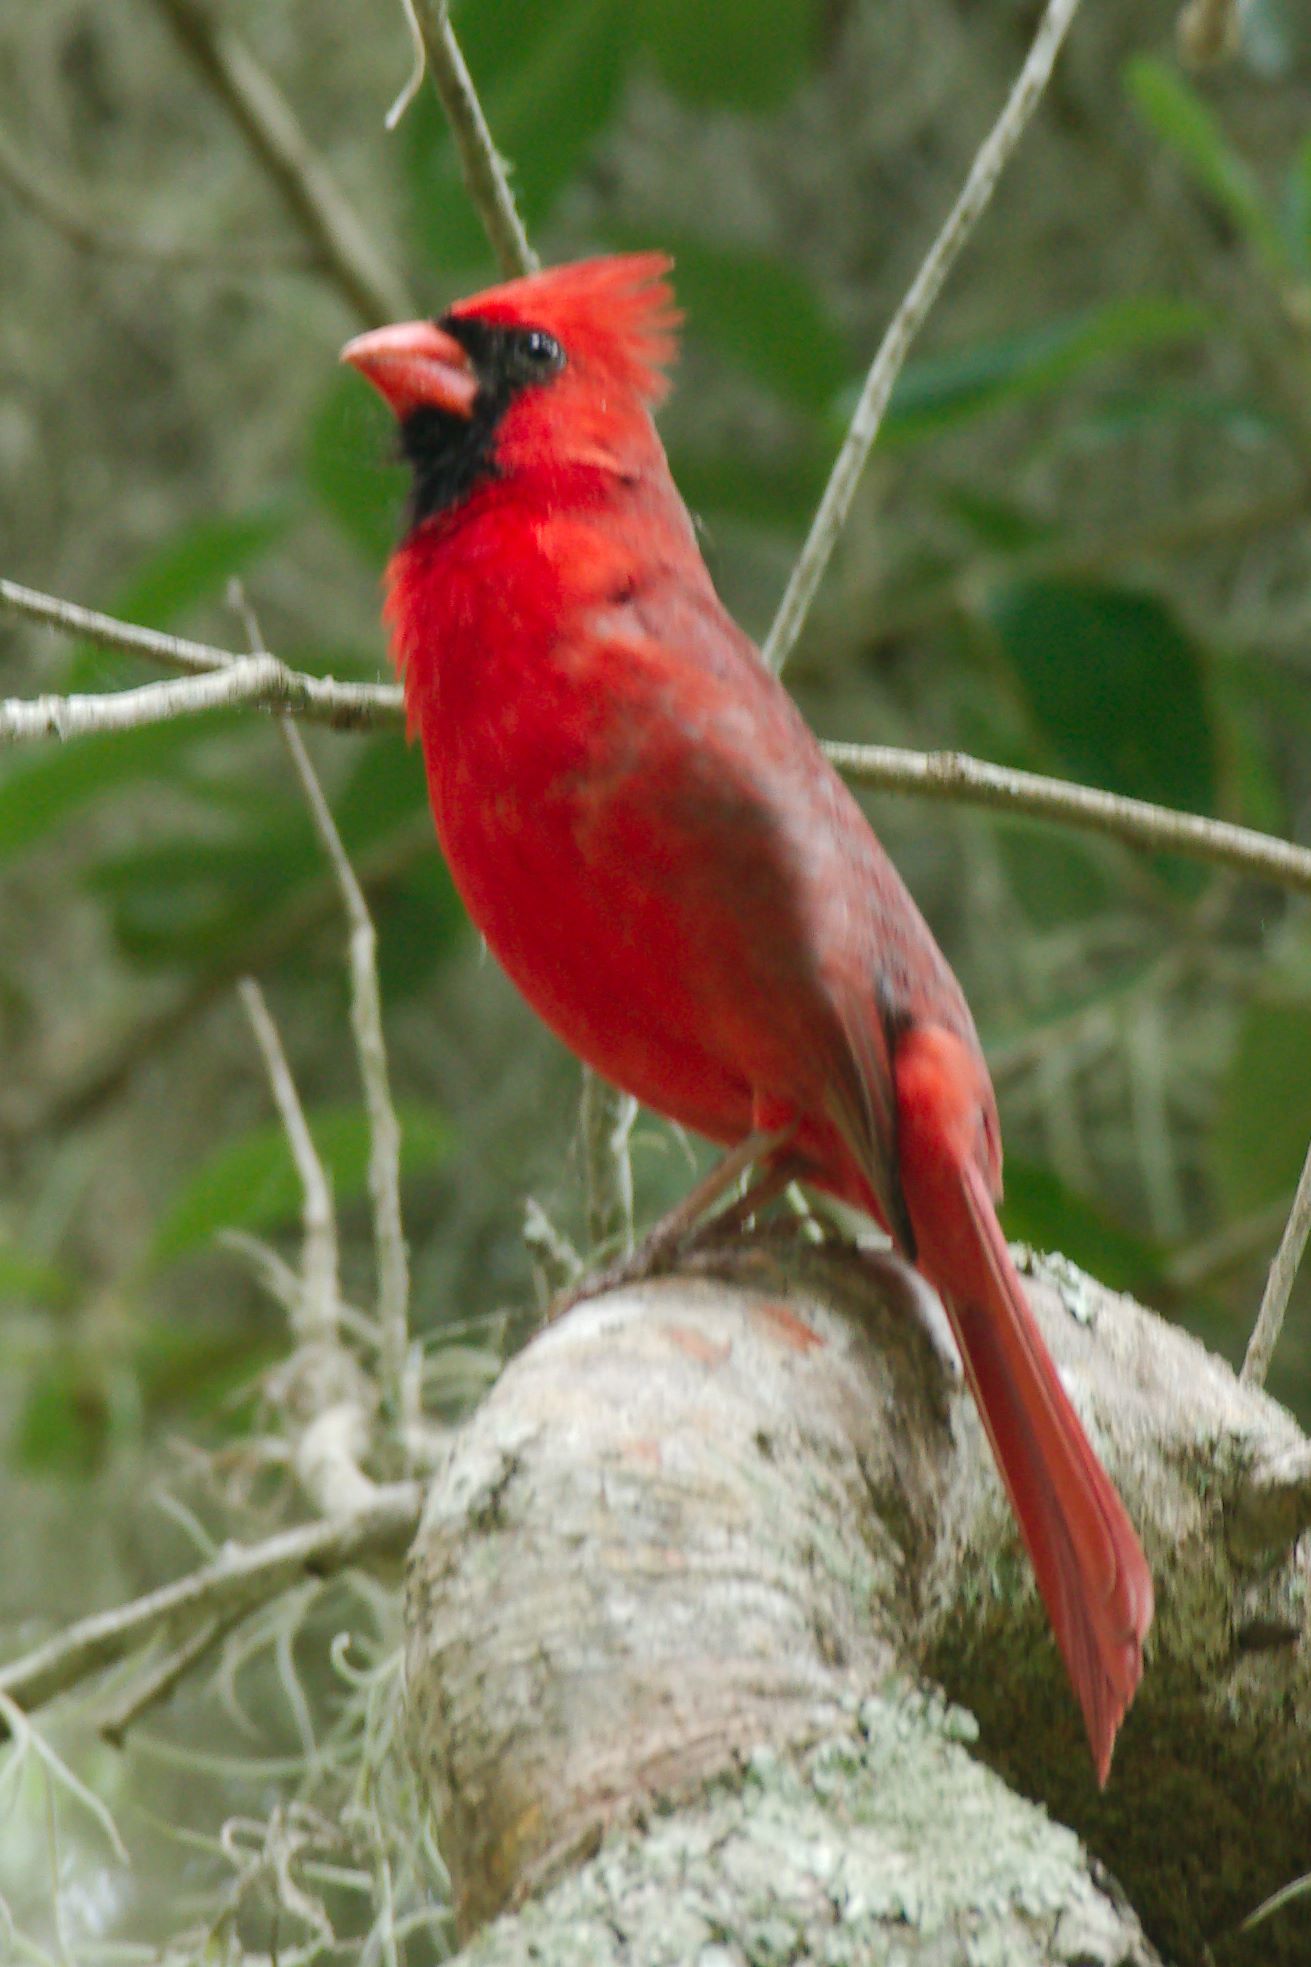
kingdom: Animalia
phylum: Chordata
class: Aves
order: Passeriformes
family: Cardinalidae
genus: Cardinalis
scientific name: Cardinalis cardinalis
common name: Northern cardinal
